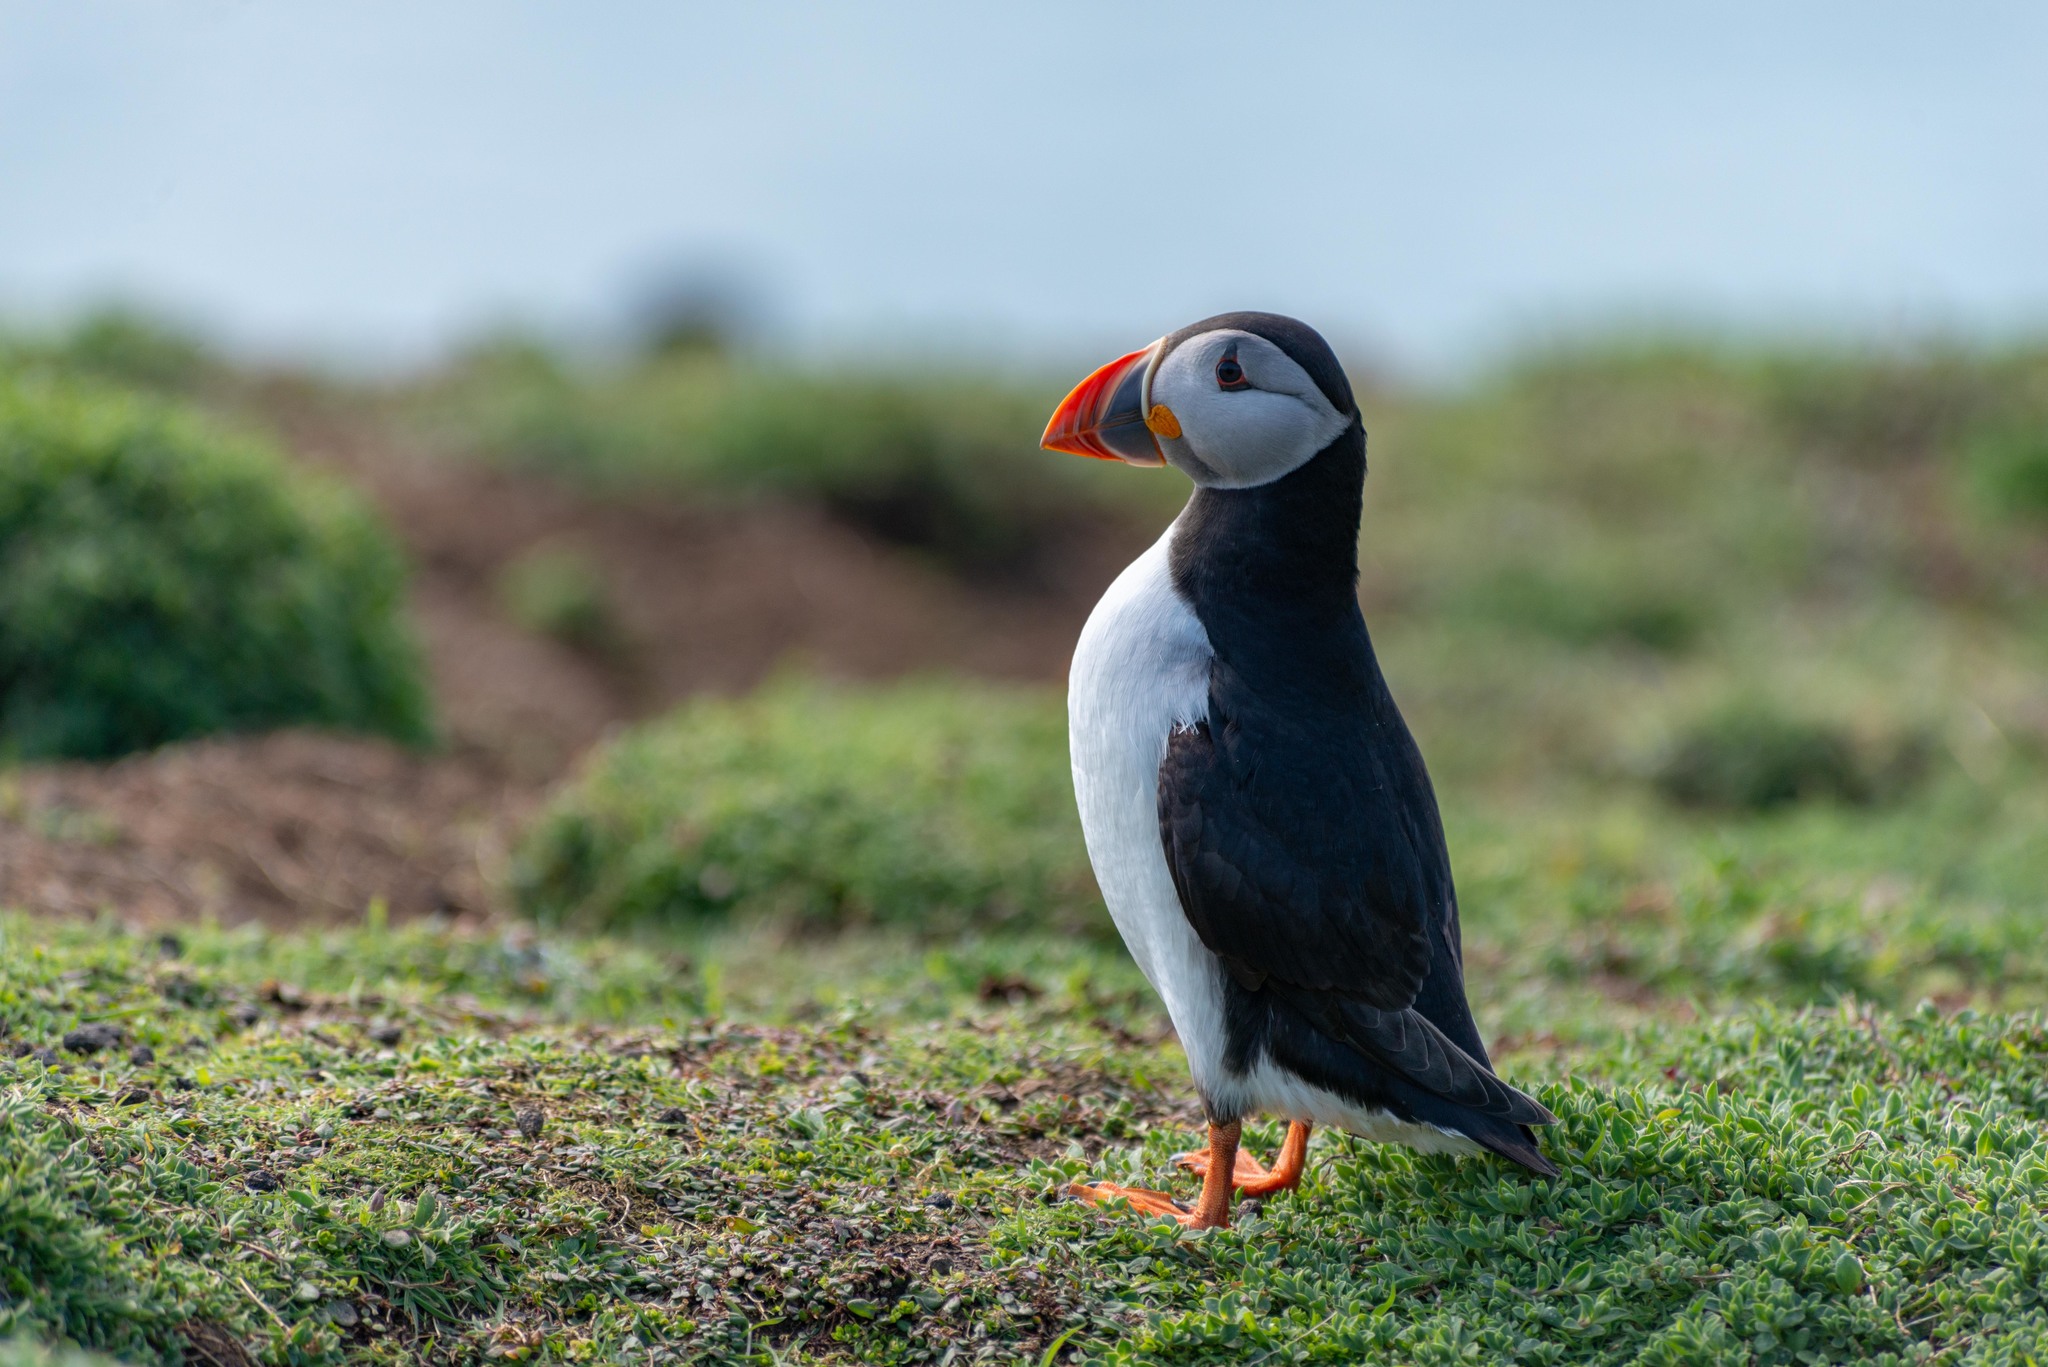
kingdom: Animalia
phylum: Chordata
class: Aves
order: Charadriiformes
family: Alcidae
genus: Fratercula
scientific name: Fratercula arctica
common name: Atlantic puffin
